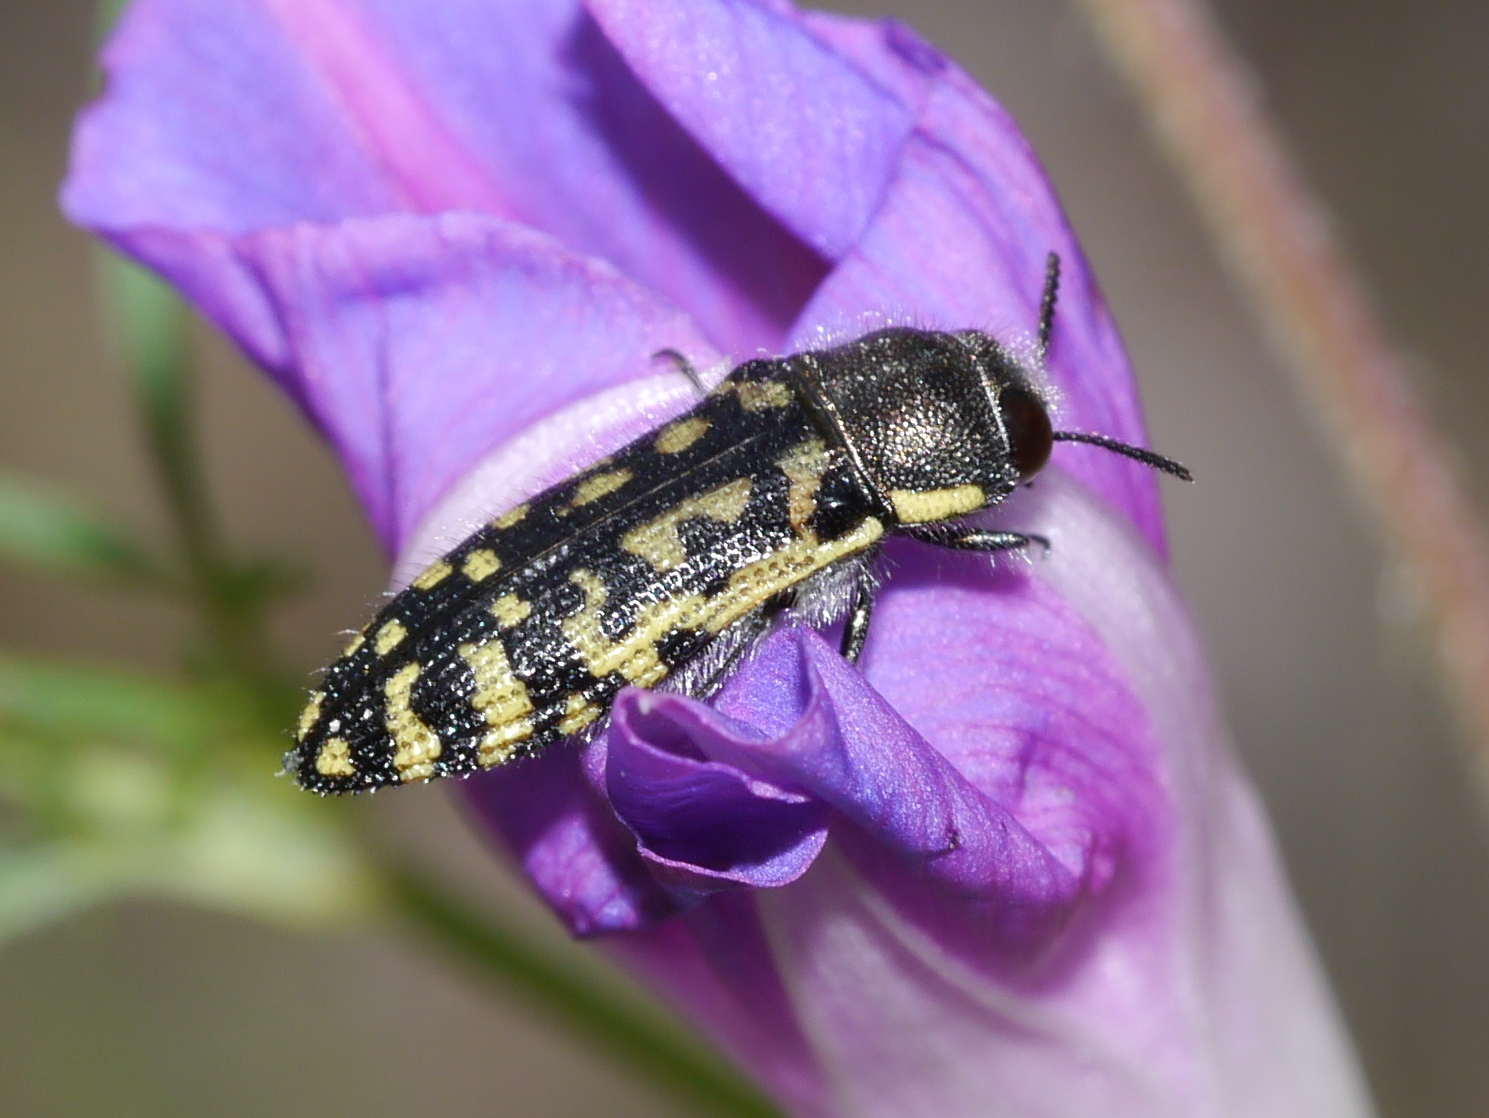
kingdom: Animalia
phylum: Arthropoda
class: Insecta
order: Coleoptera
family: Buprestidae
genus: Acmaeodera
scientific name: Acmaeodera solitaria
